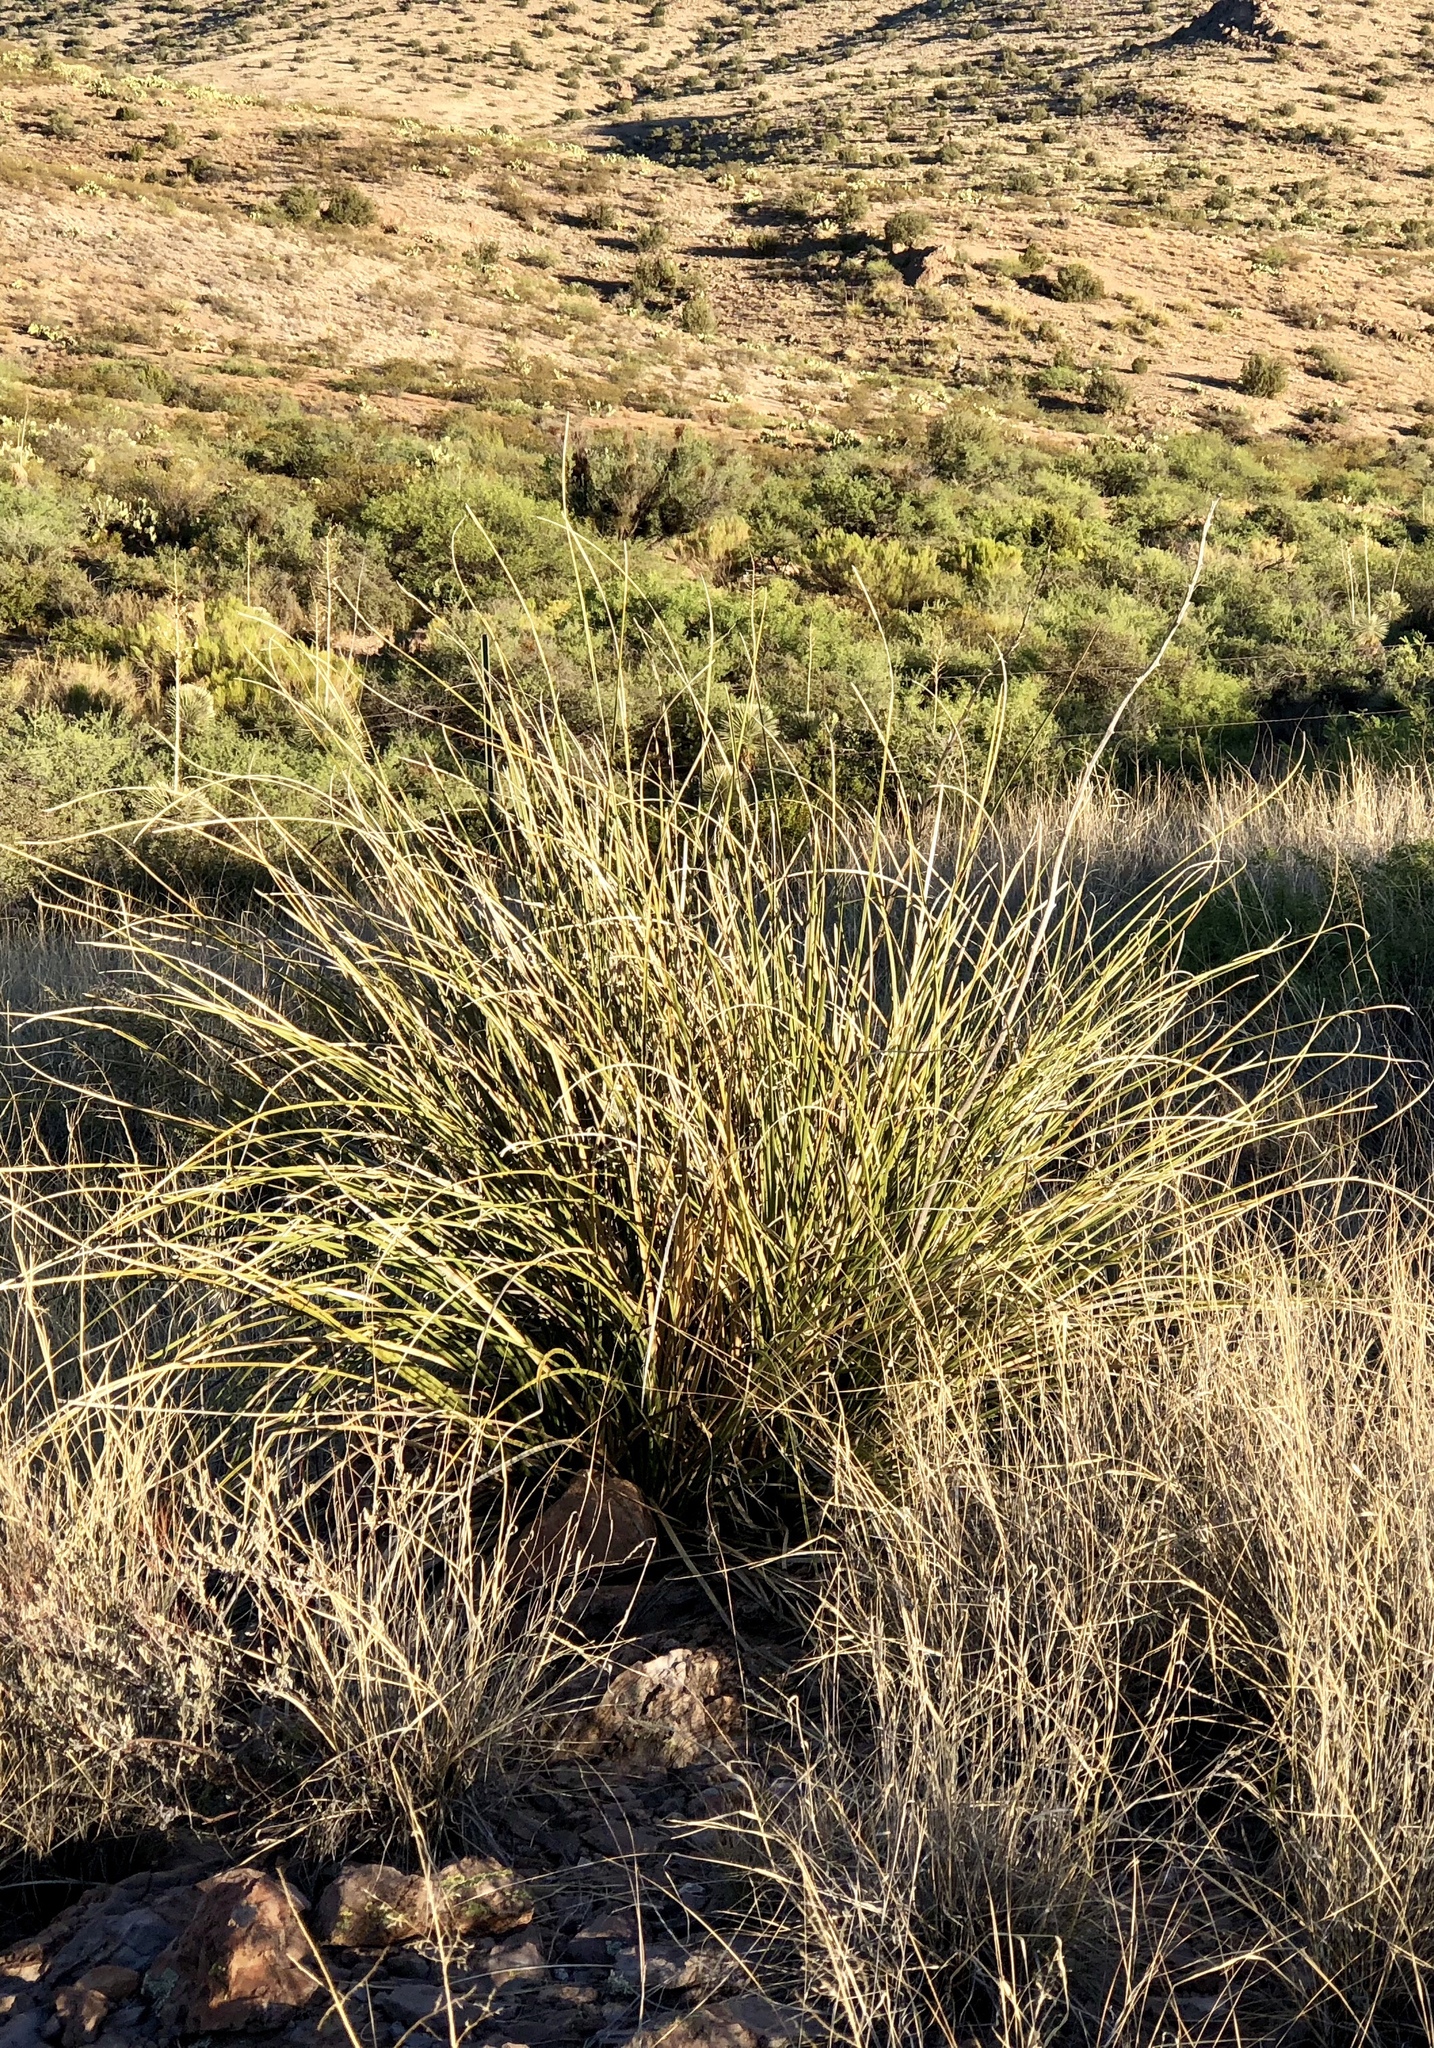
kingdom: Plantae
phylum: Tracheophyta
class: Liliopsida
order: Asparagales
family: Asparagaceae
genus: Nolina
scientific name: Nolina microcarpa
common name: Bear-grass
